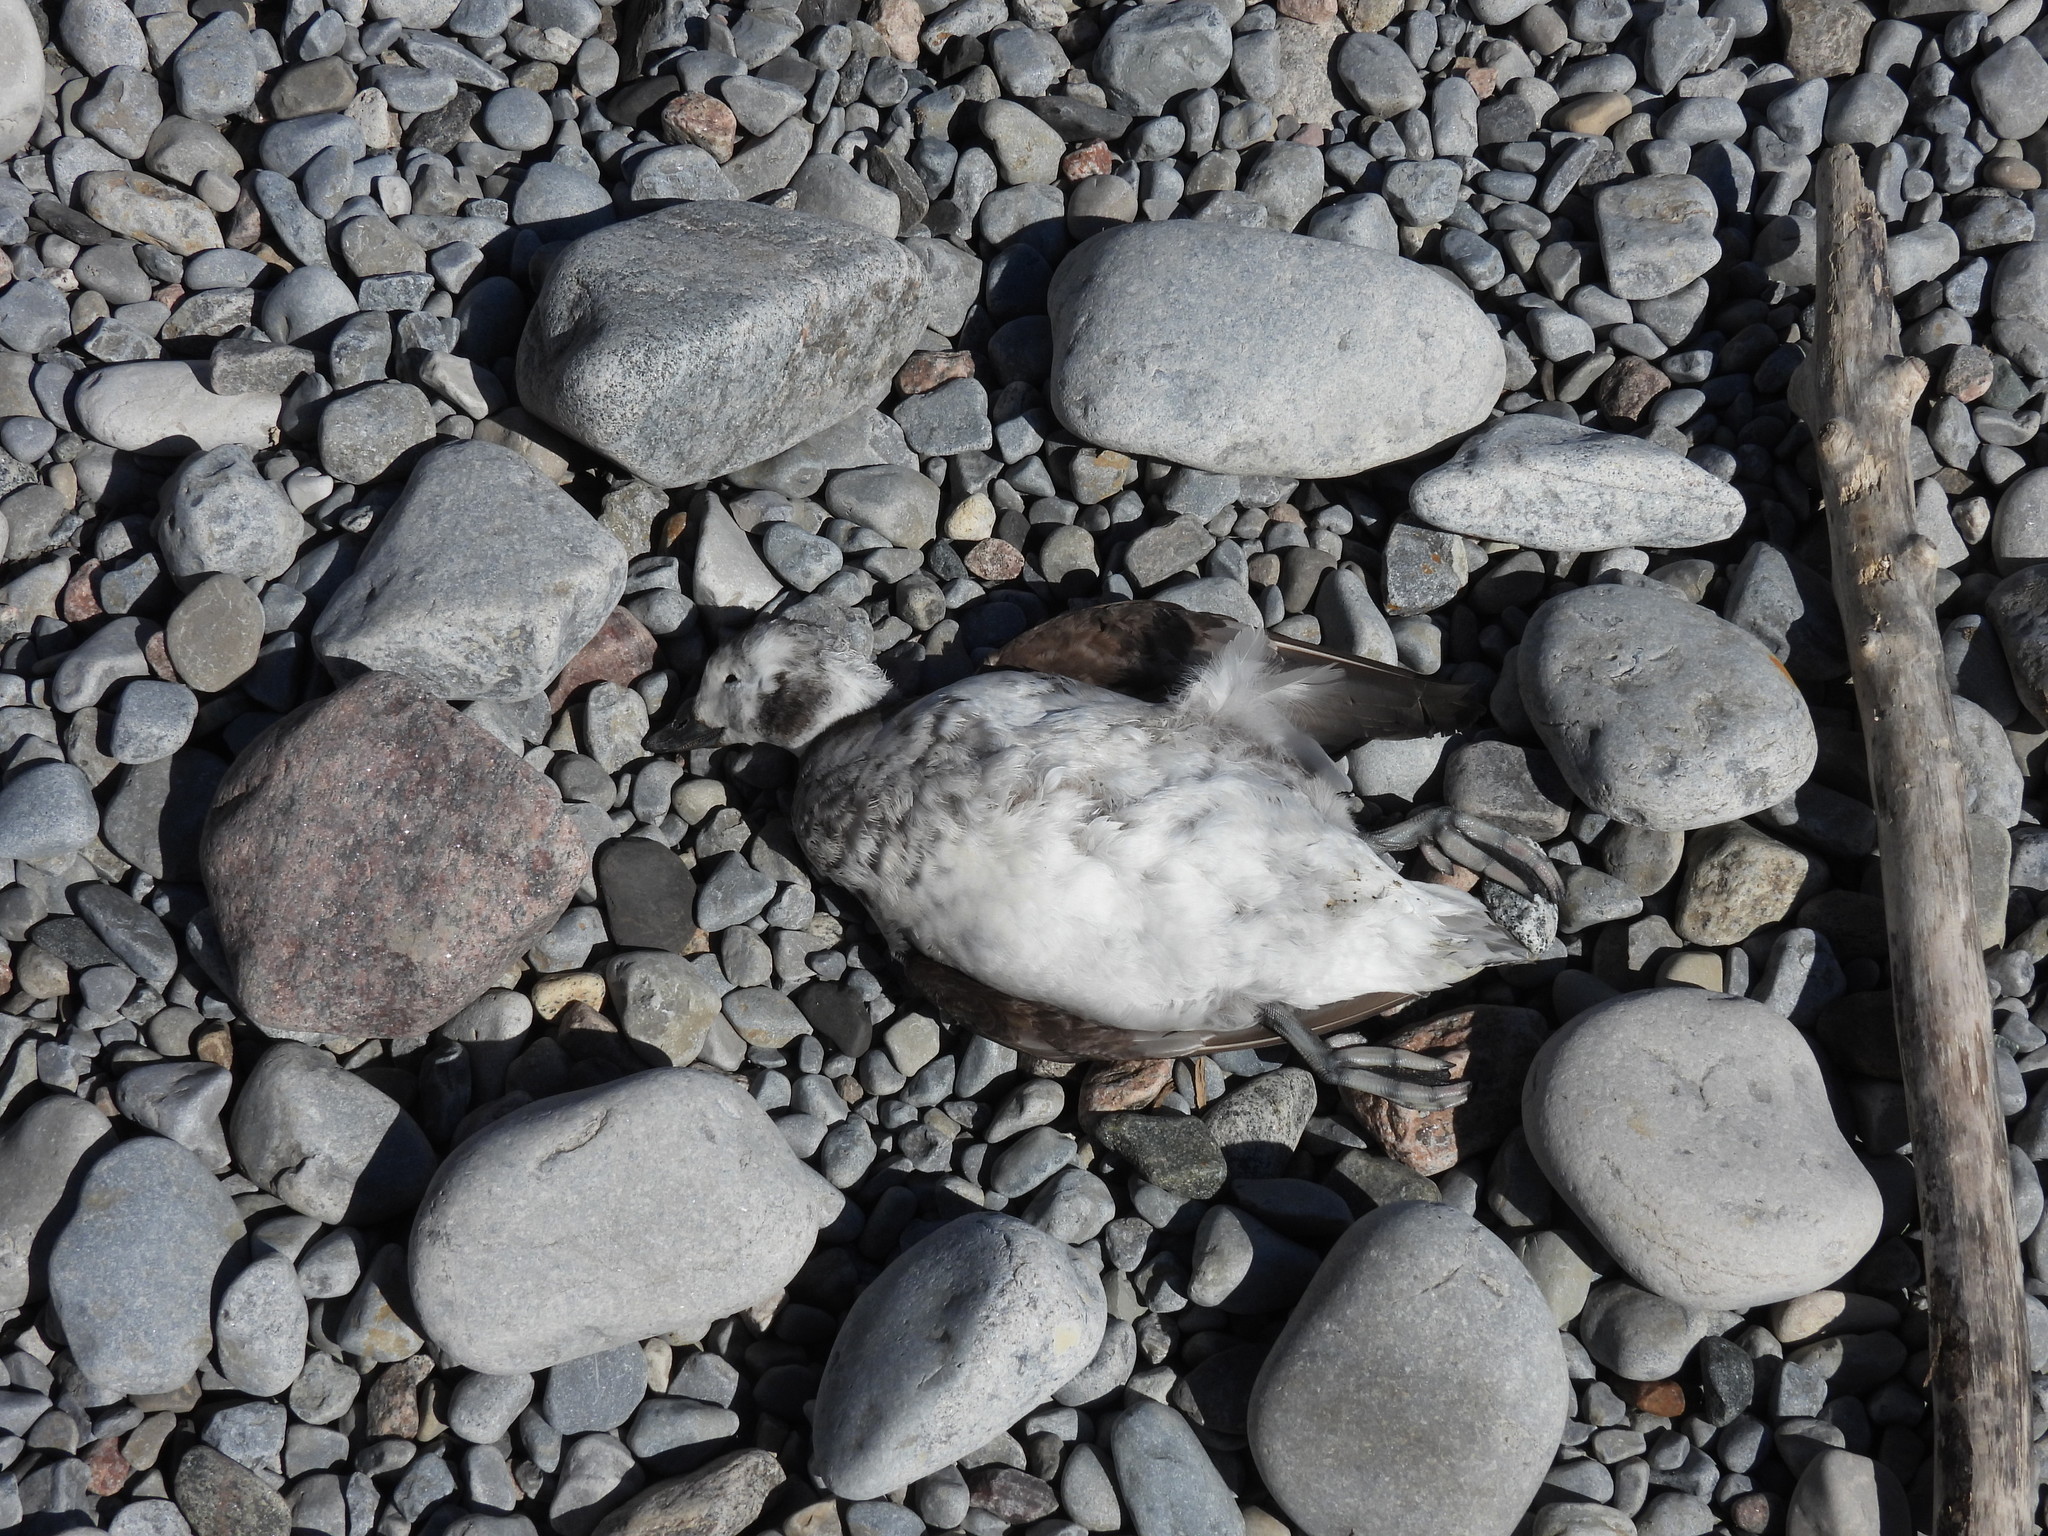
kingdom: Animalia
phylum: Chordata
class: Aves
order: Anseriformes
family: Anatidae
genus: Clangula
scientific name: Clangula hyemalis
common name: Long-tailed duck
